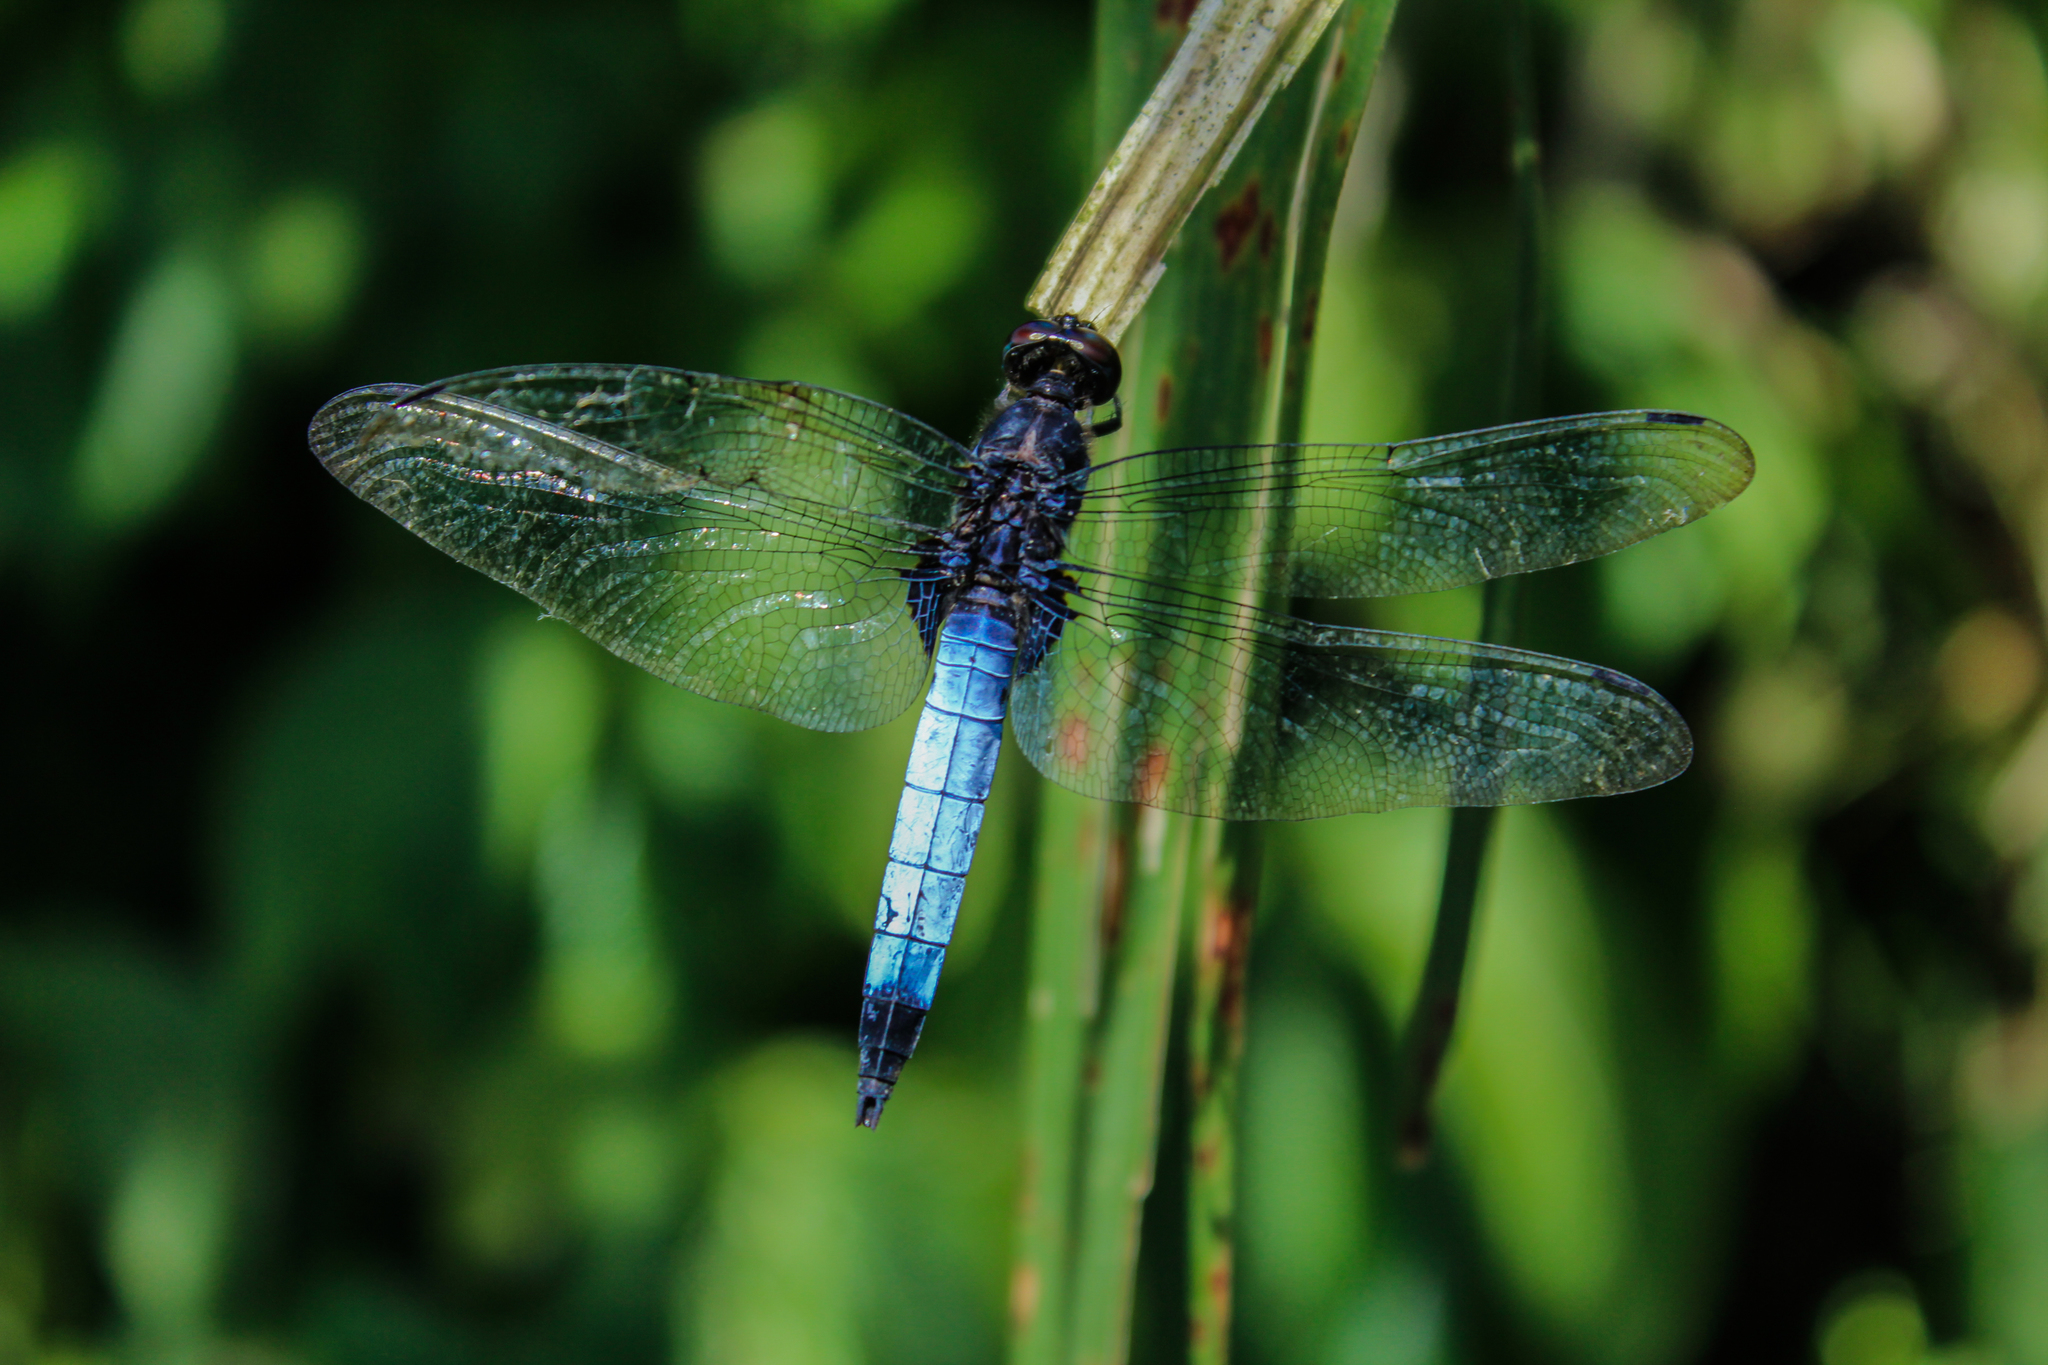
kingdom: Animalia
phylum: Arthropoda
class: Insecta
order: Odonata
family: Libellulidae
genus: Orthetrum
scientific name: Orthetrum
